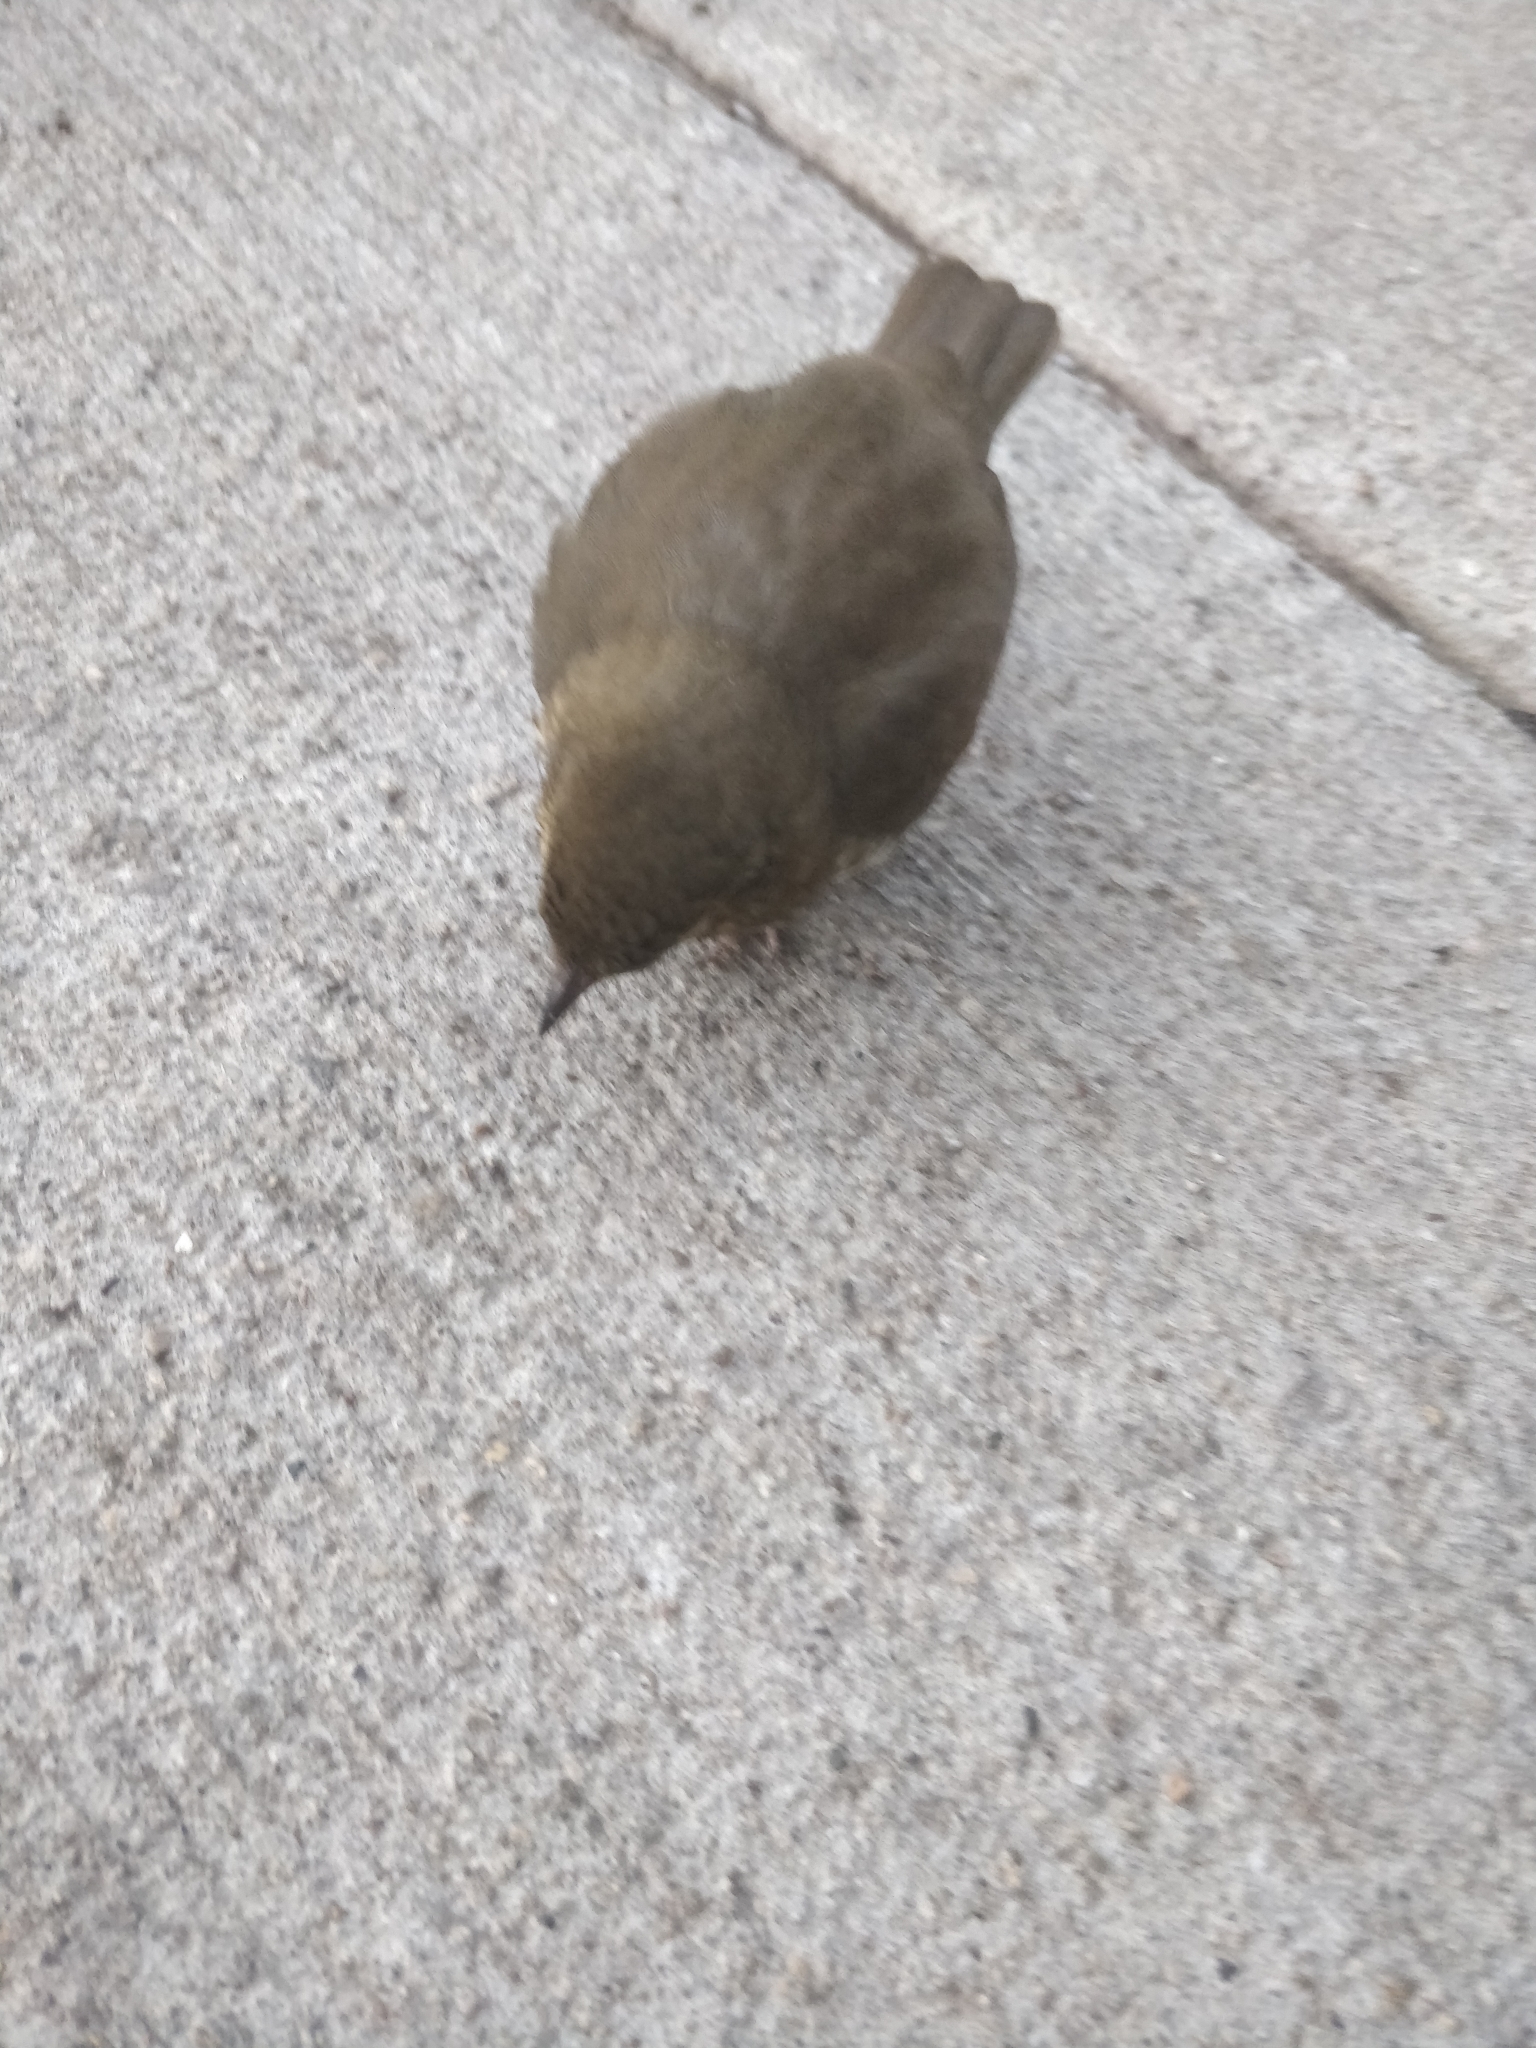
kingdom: Animalia
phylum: Chordata
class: Aves
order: Passeriformes
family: Turdidae
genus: Catharus
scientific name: Catharus ustulatus
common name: Swainson's thrush
